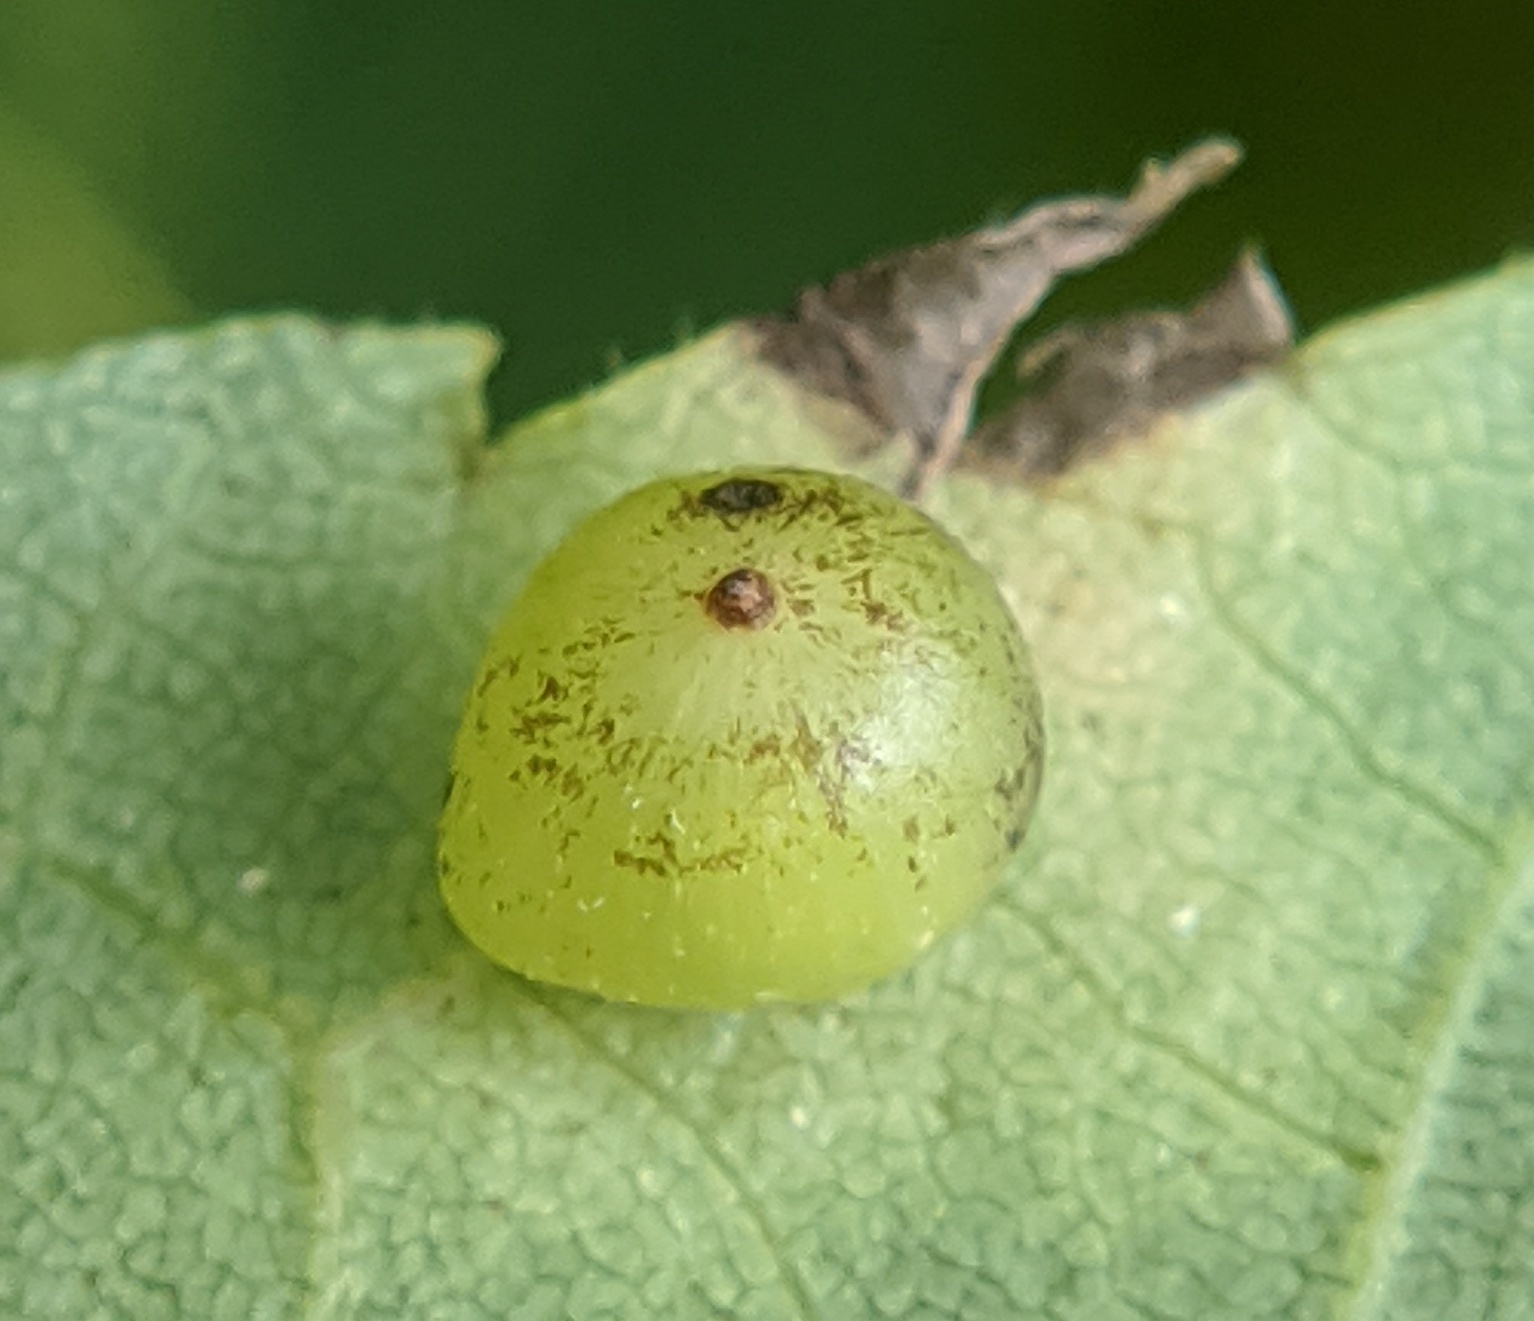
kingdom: Animalia
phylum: Arthropoda
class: Insecta
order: Diptera
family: Cecidomyiidae
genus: Caryomyia
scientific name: Caryomyia deflexipili
